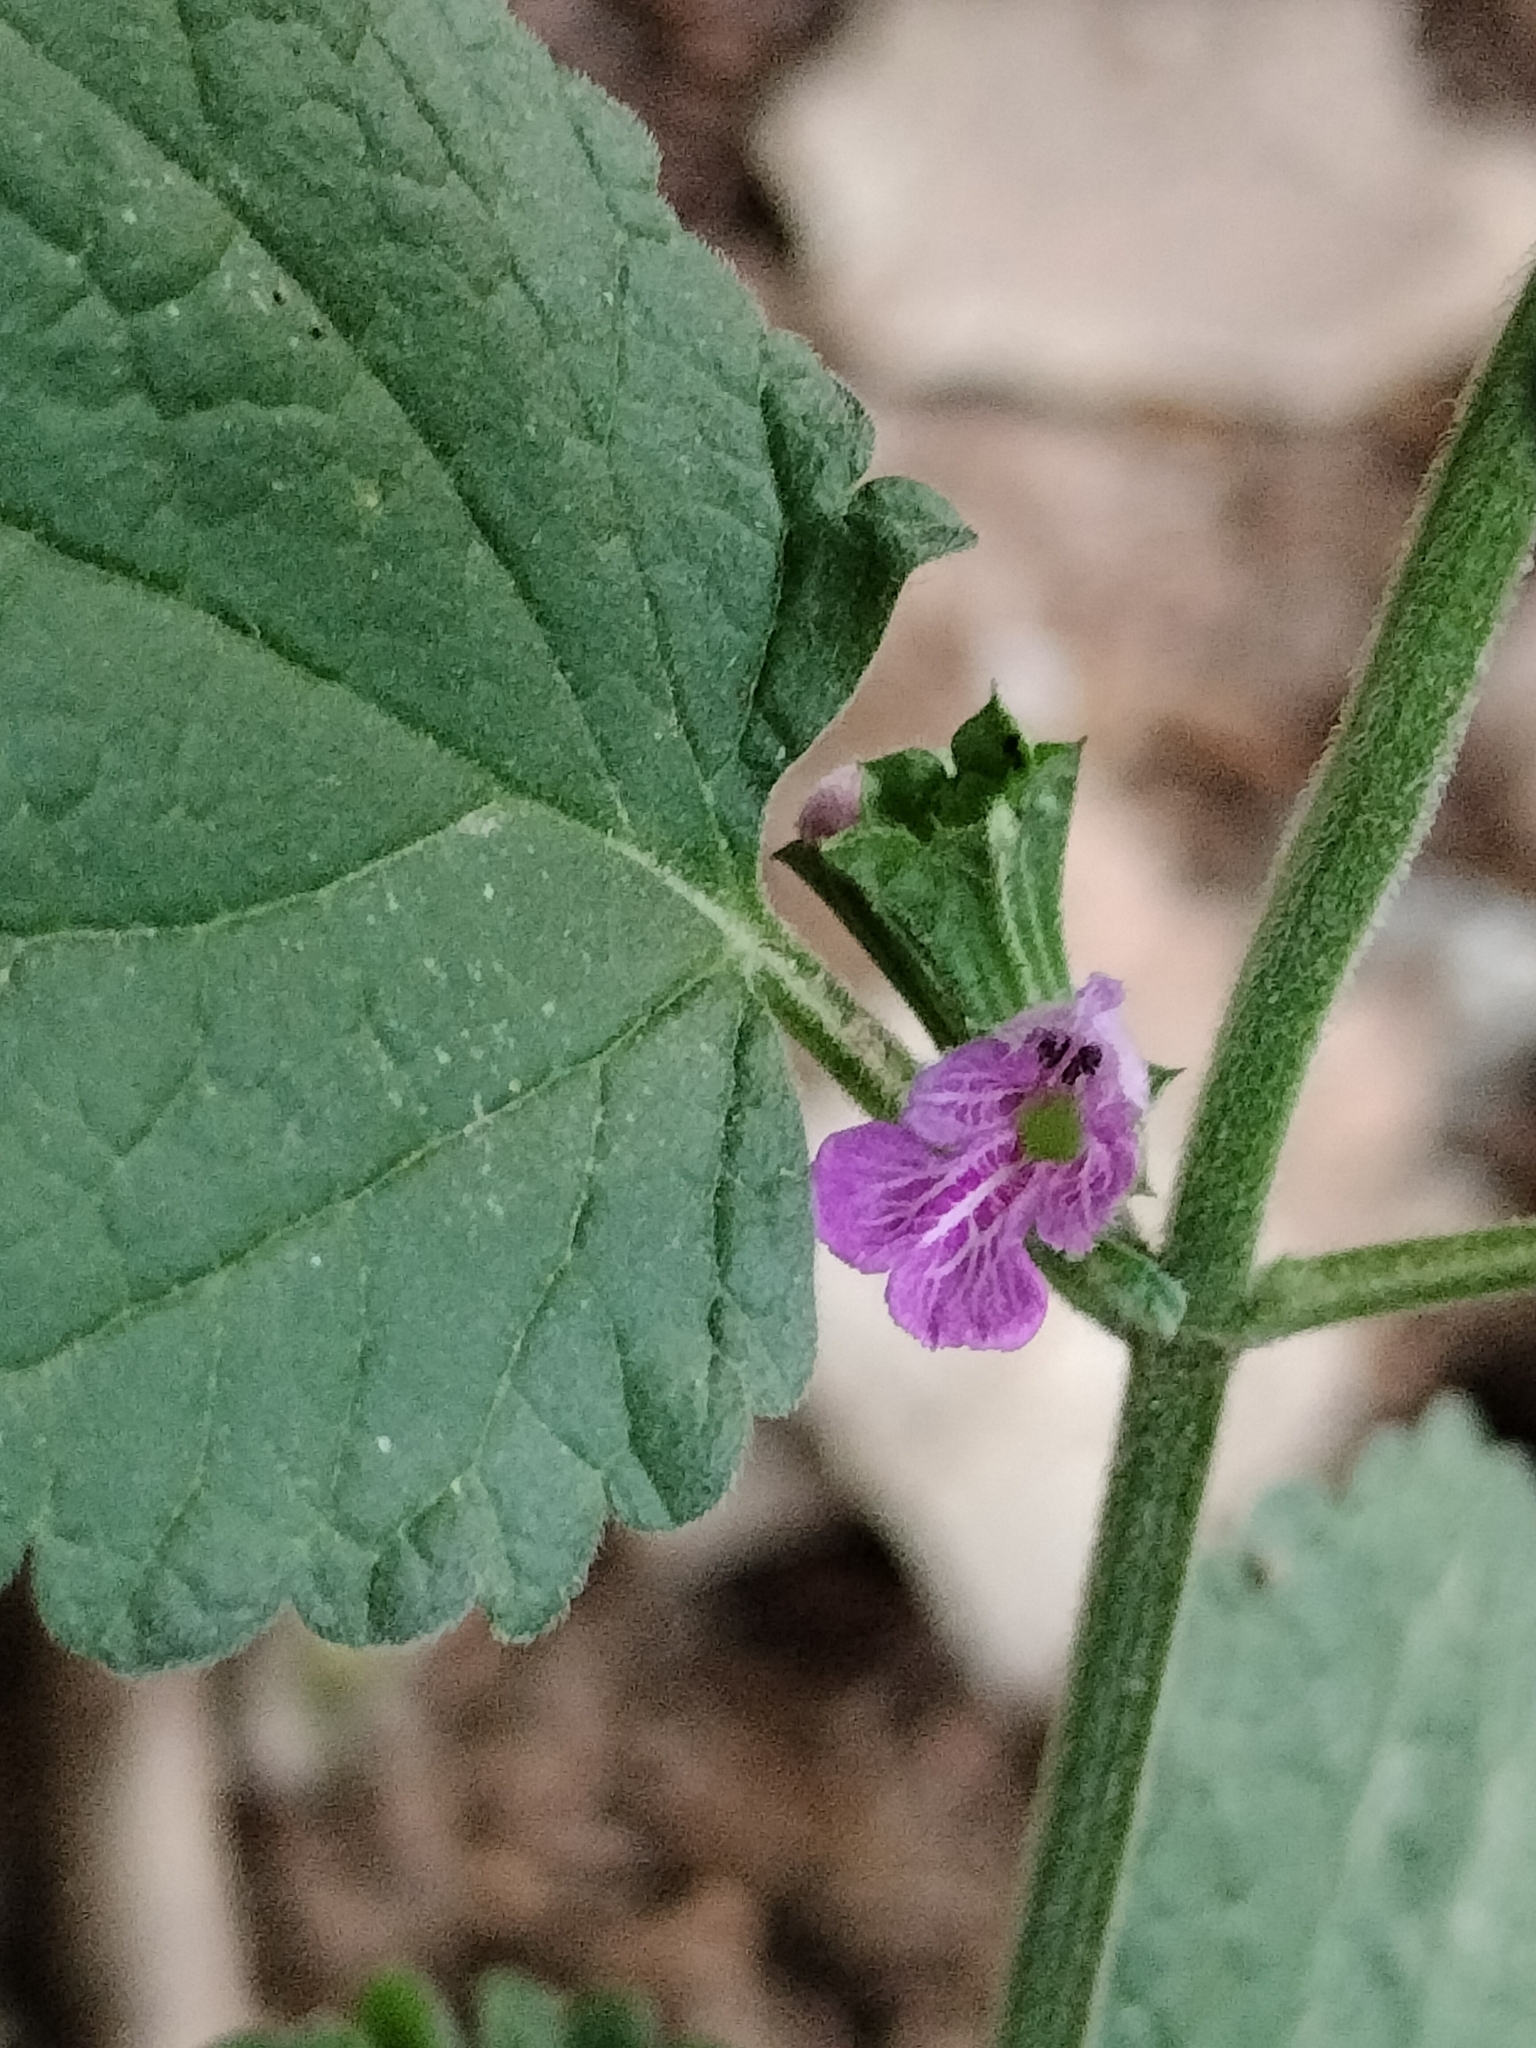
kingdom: Plantae
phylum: Tracheophyta
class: Magnoliopsida
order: Lamiales
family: Lamiaceae
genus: Ballota
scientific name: Ballota nigra
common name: Black horehound
